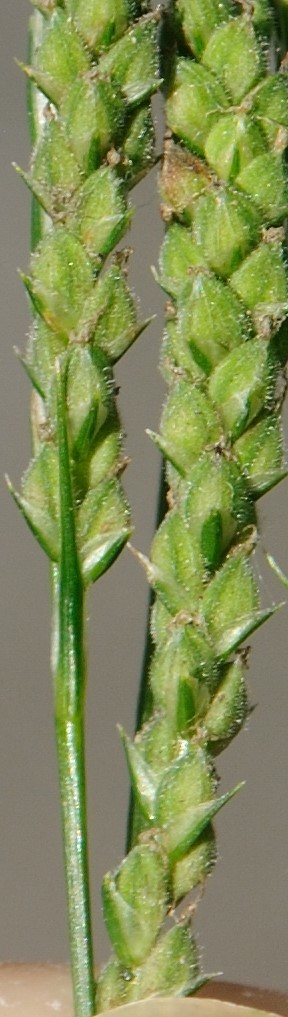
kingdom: Plantae
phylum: Tracheophyta
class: Liliopsida
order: Poales
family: Cyperaceae
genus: Carex
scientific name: Carex virescens
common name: Ribbed sedge
